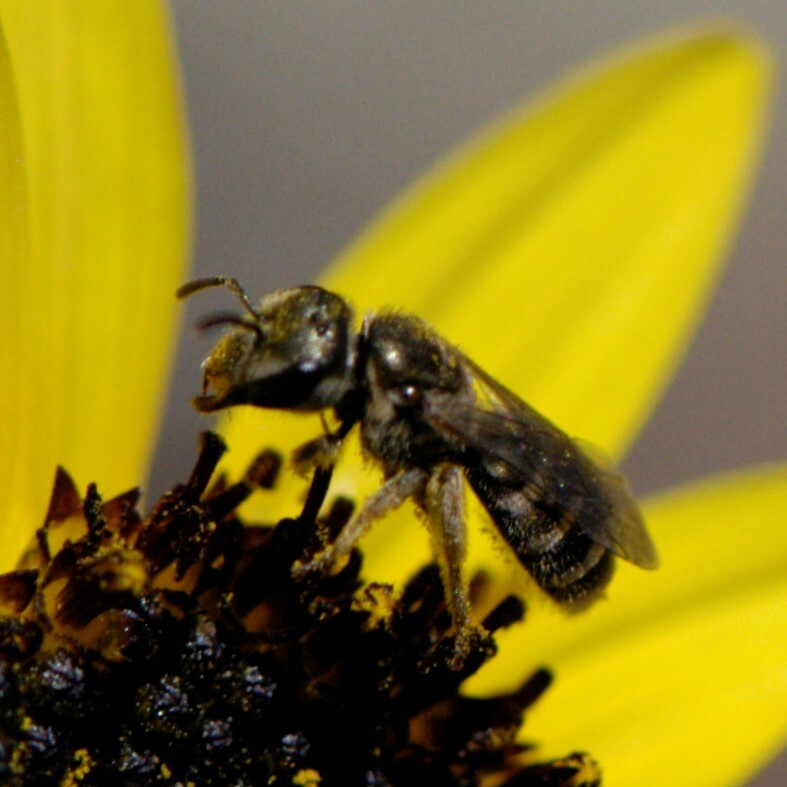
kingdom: Animalia
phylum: Arthropoda
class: Insecta
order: Hymenoptera
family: Halictidae
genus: Halictus
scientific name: Halictus tripartitus
